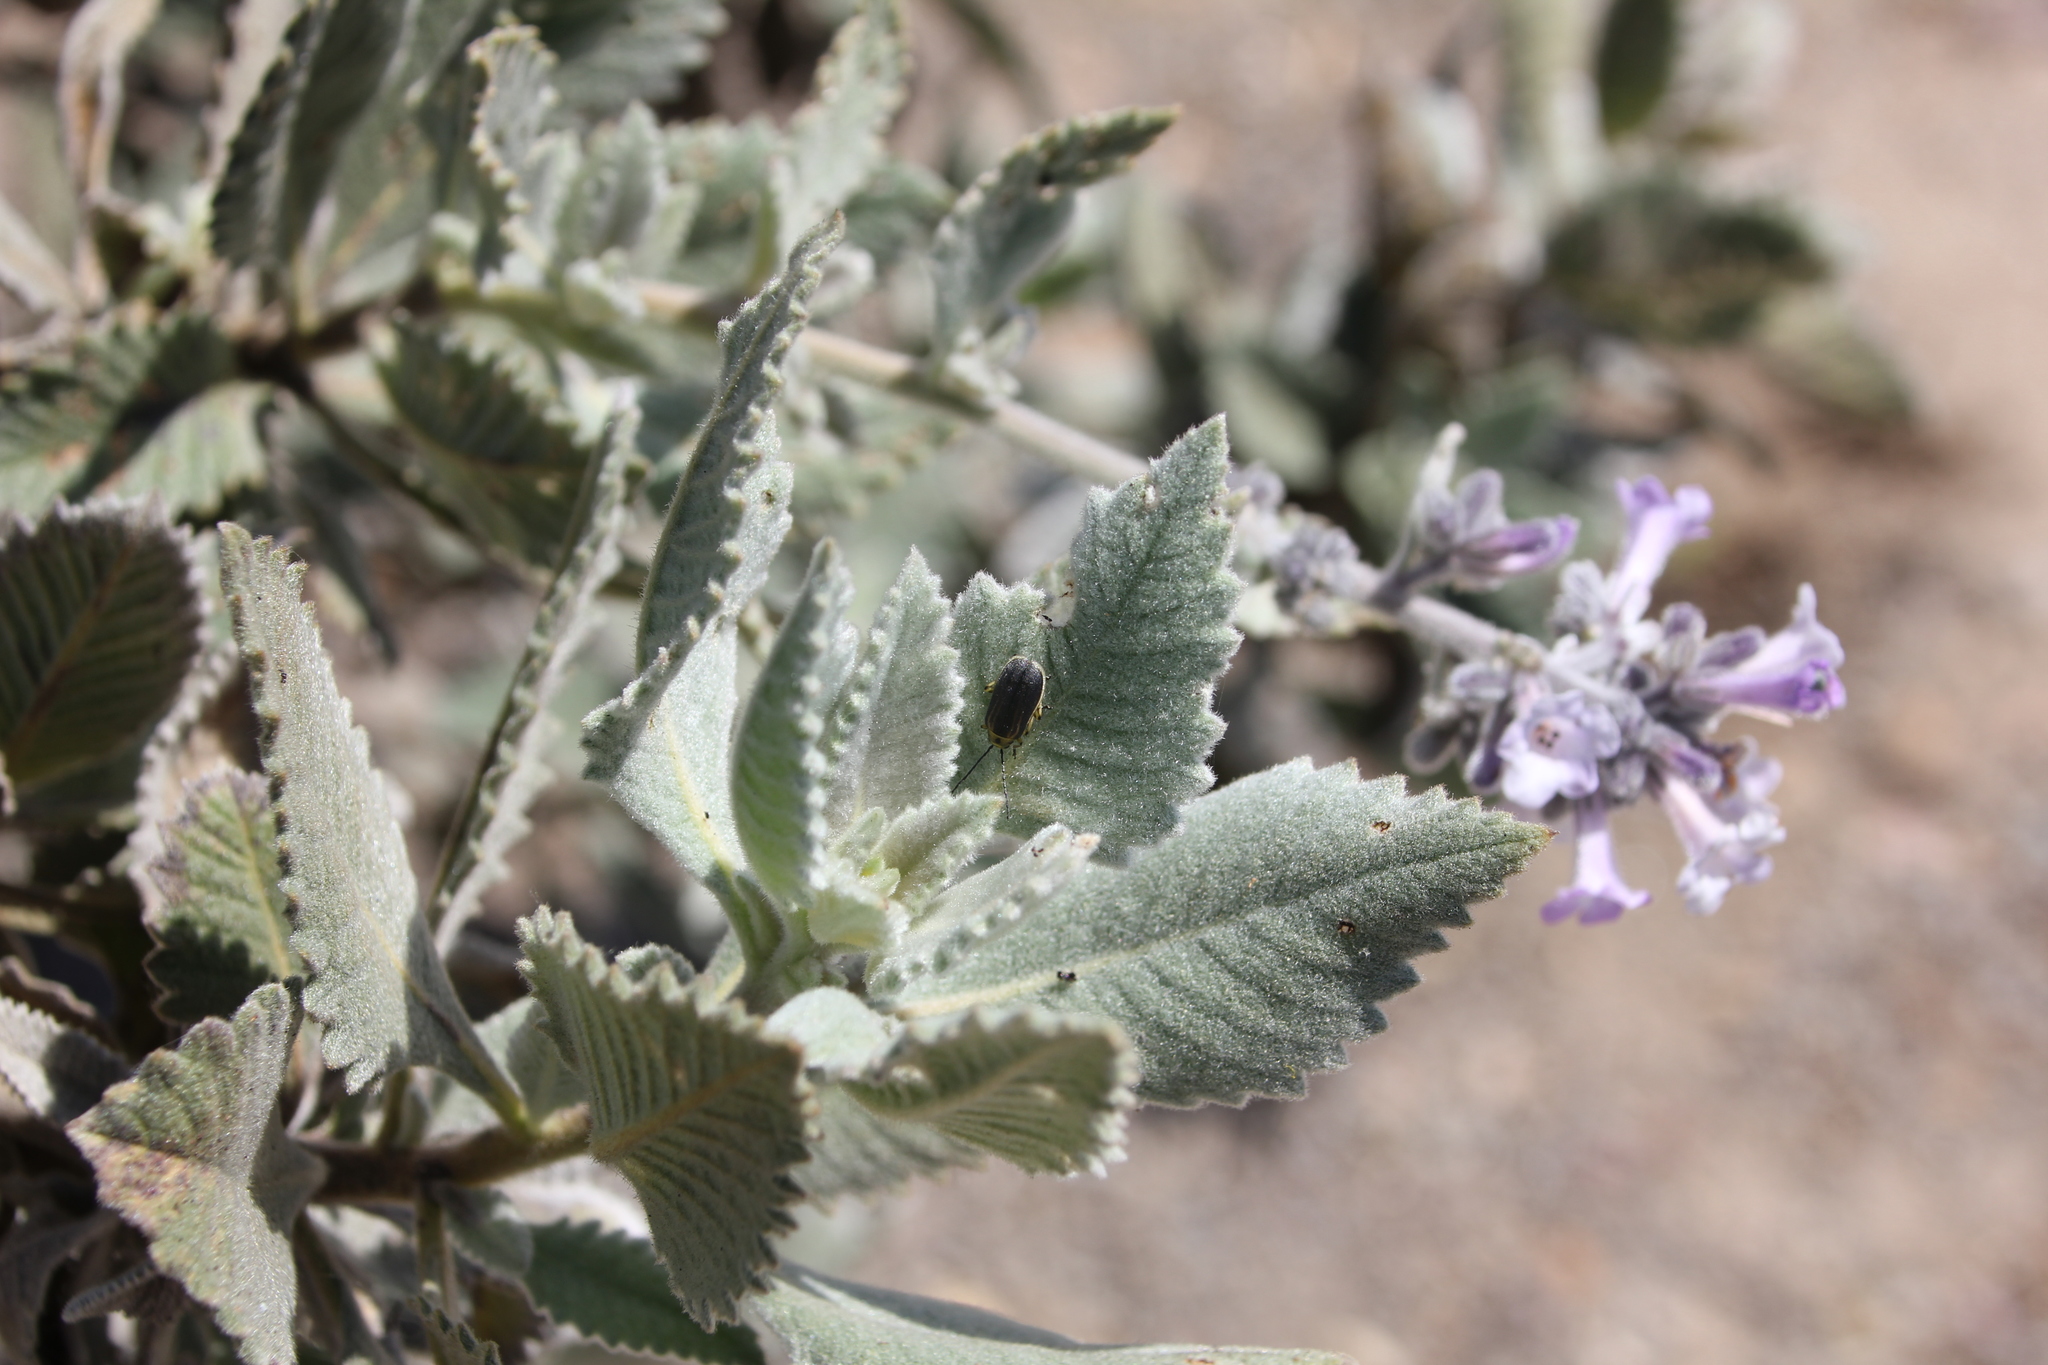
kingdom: Plantae
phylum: Tracheophyta
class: Magnoliopsida
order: Boraginales
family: Namaceae
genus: Eriodictyon
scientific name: Eriodictyon crassifolium
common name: Thick-leaf yerba-santa
